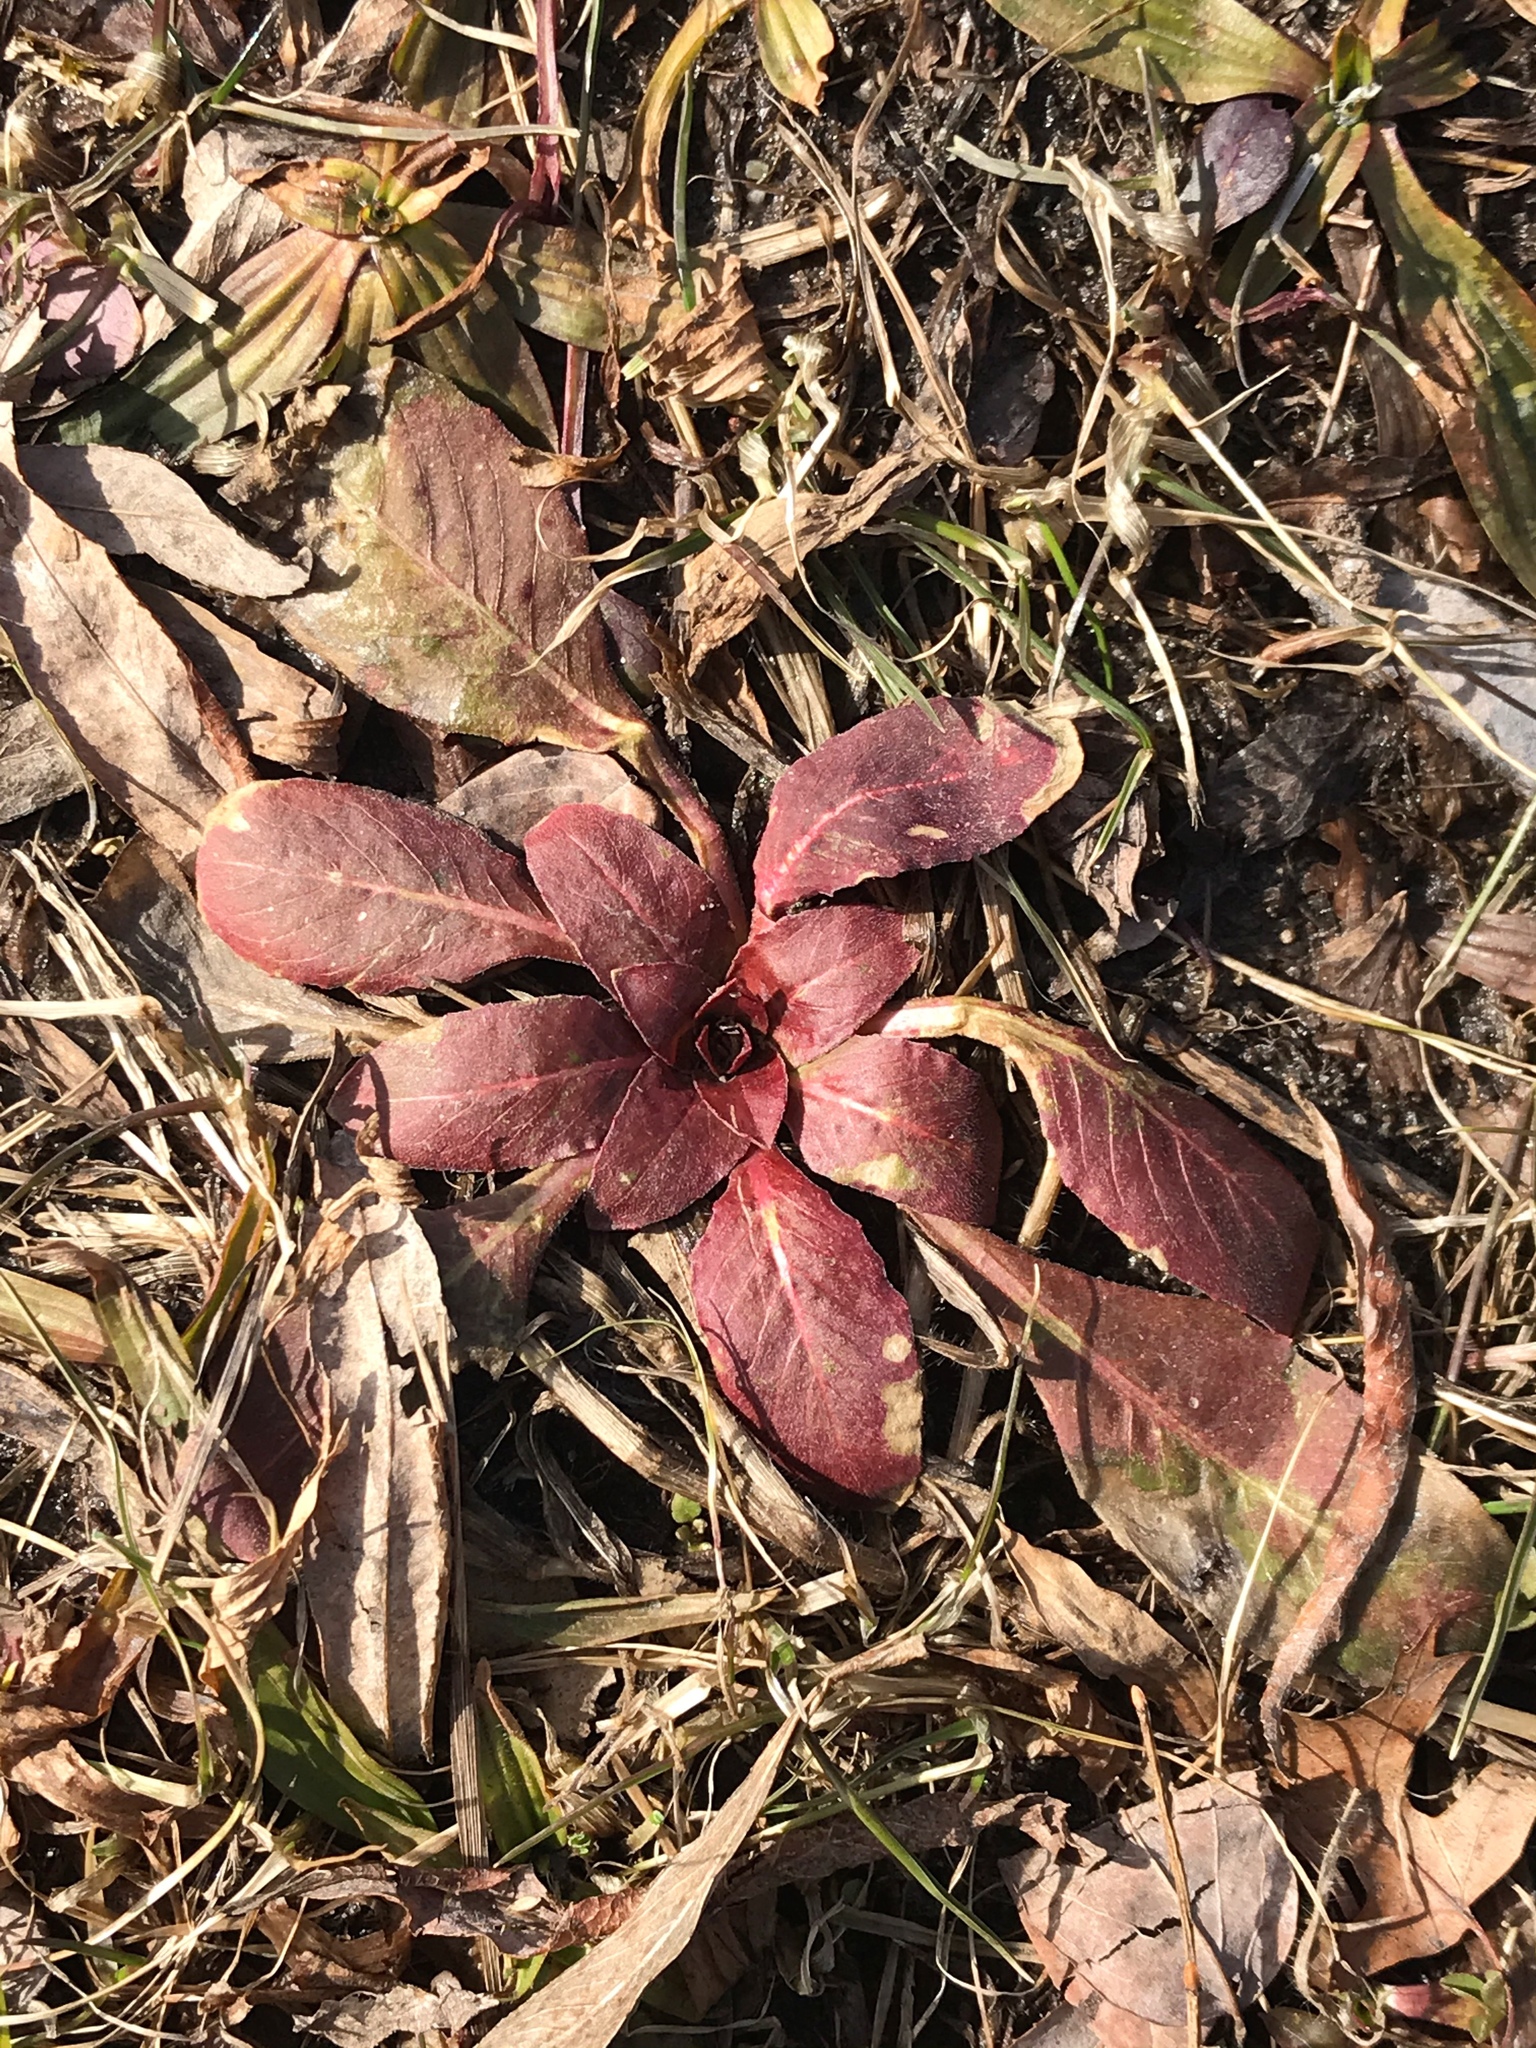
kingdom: Plantae
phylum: Tracheophyta
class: Magnoliopsida
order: Myrtales
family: Onagraceae
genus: Oenothera
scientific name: Oenothera biennis
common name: Common evening-primrose
